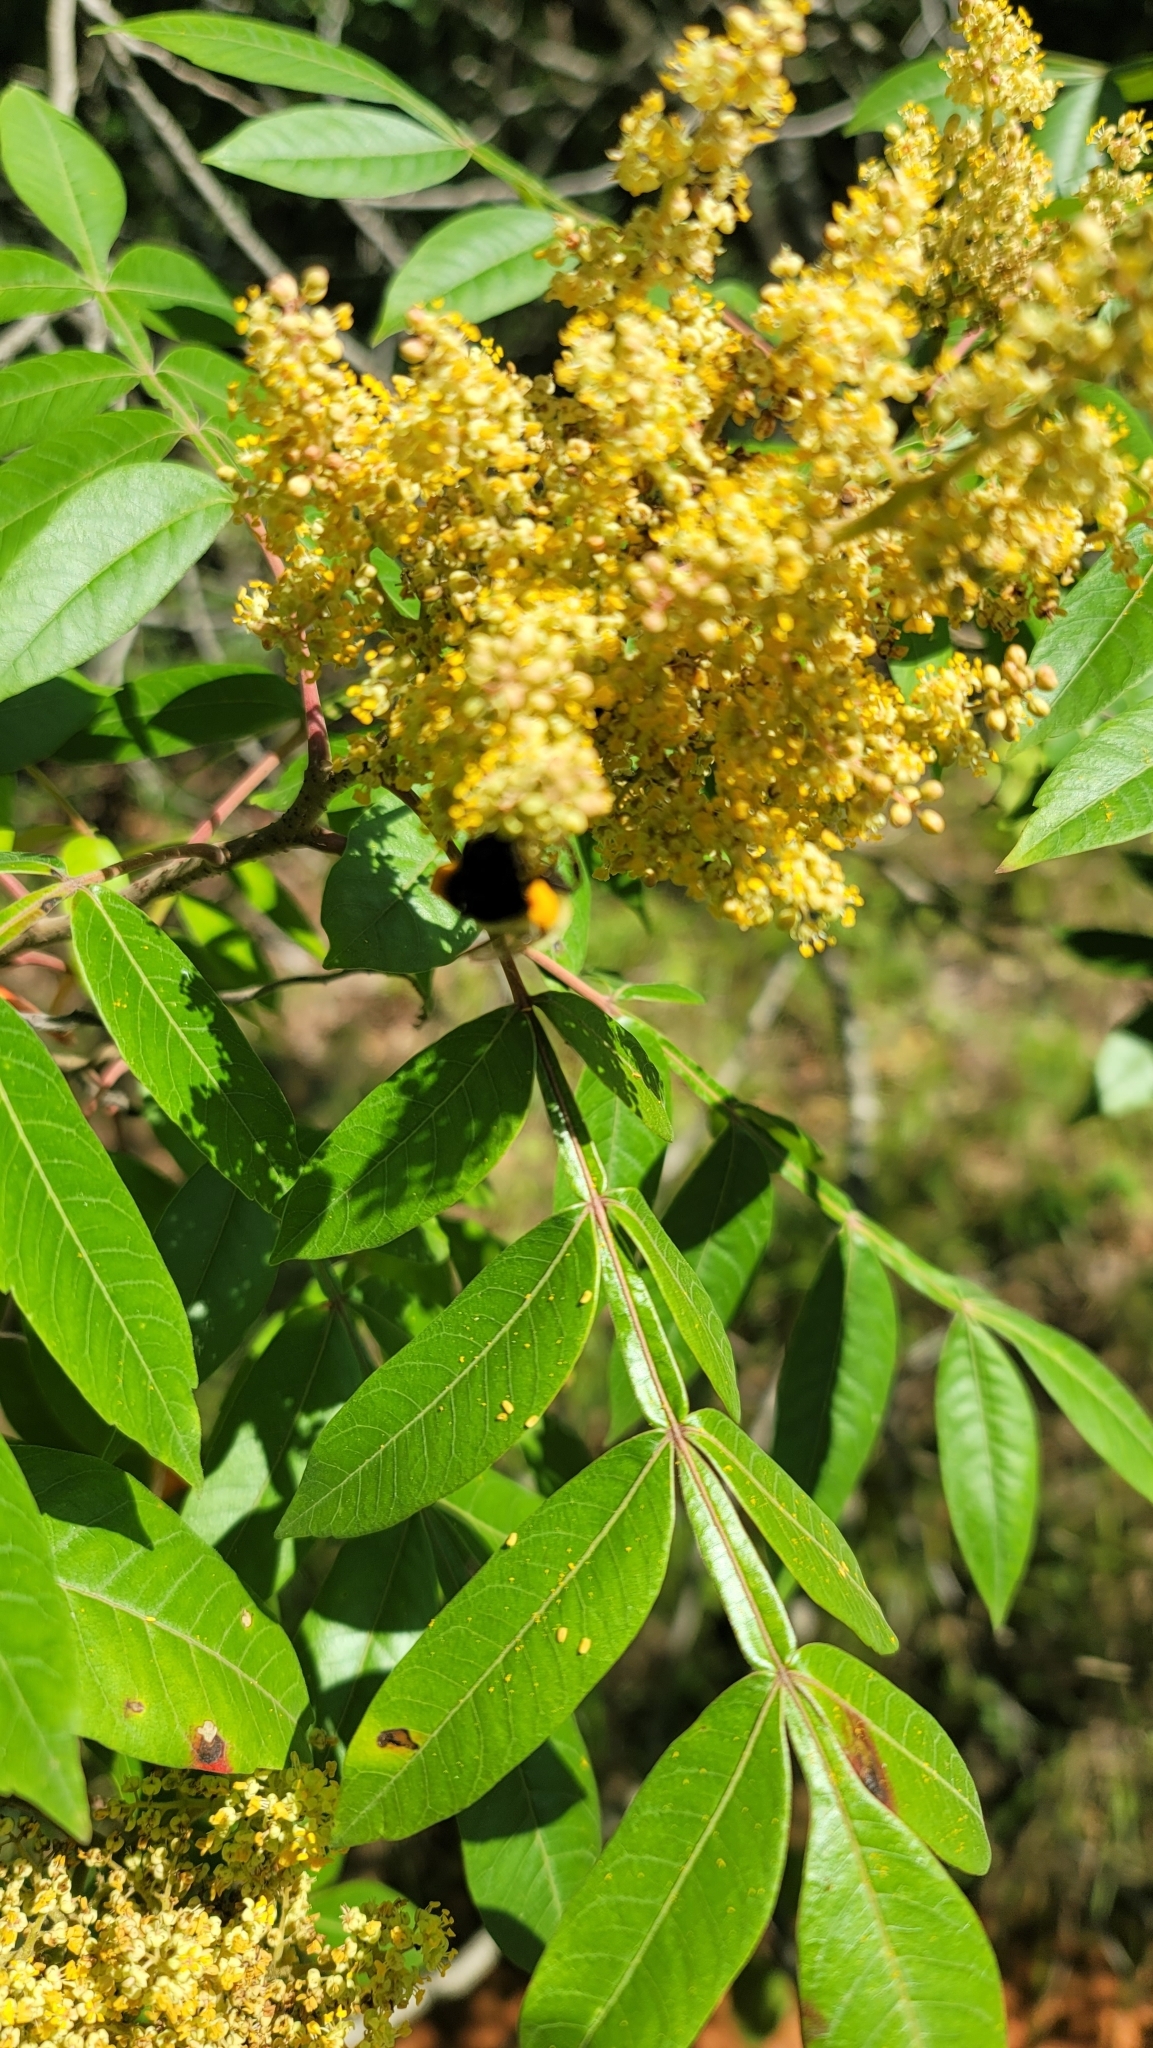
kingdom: Plantae
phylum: Tracheophyta
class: Magnoliopsida
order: Sapindales
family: Anacardiaceae
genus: Rhus
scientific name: Rhus copallina
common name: Shining sumac
